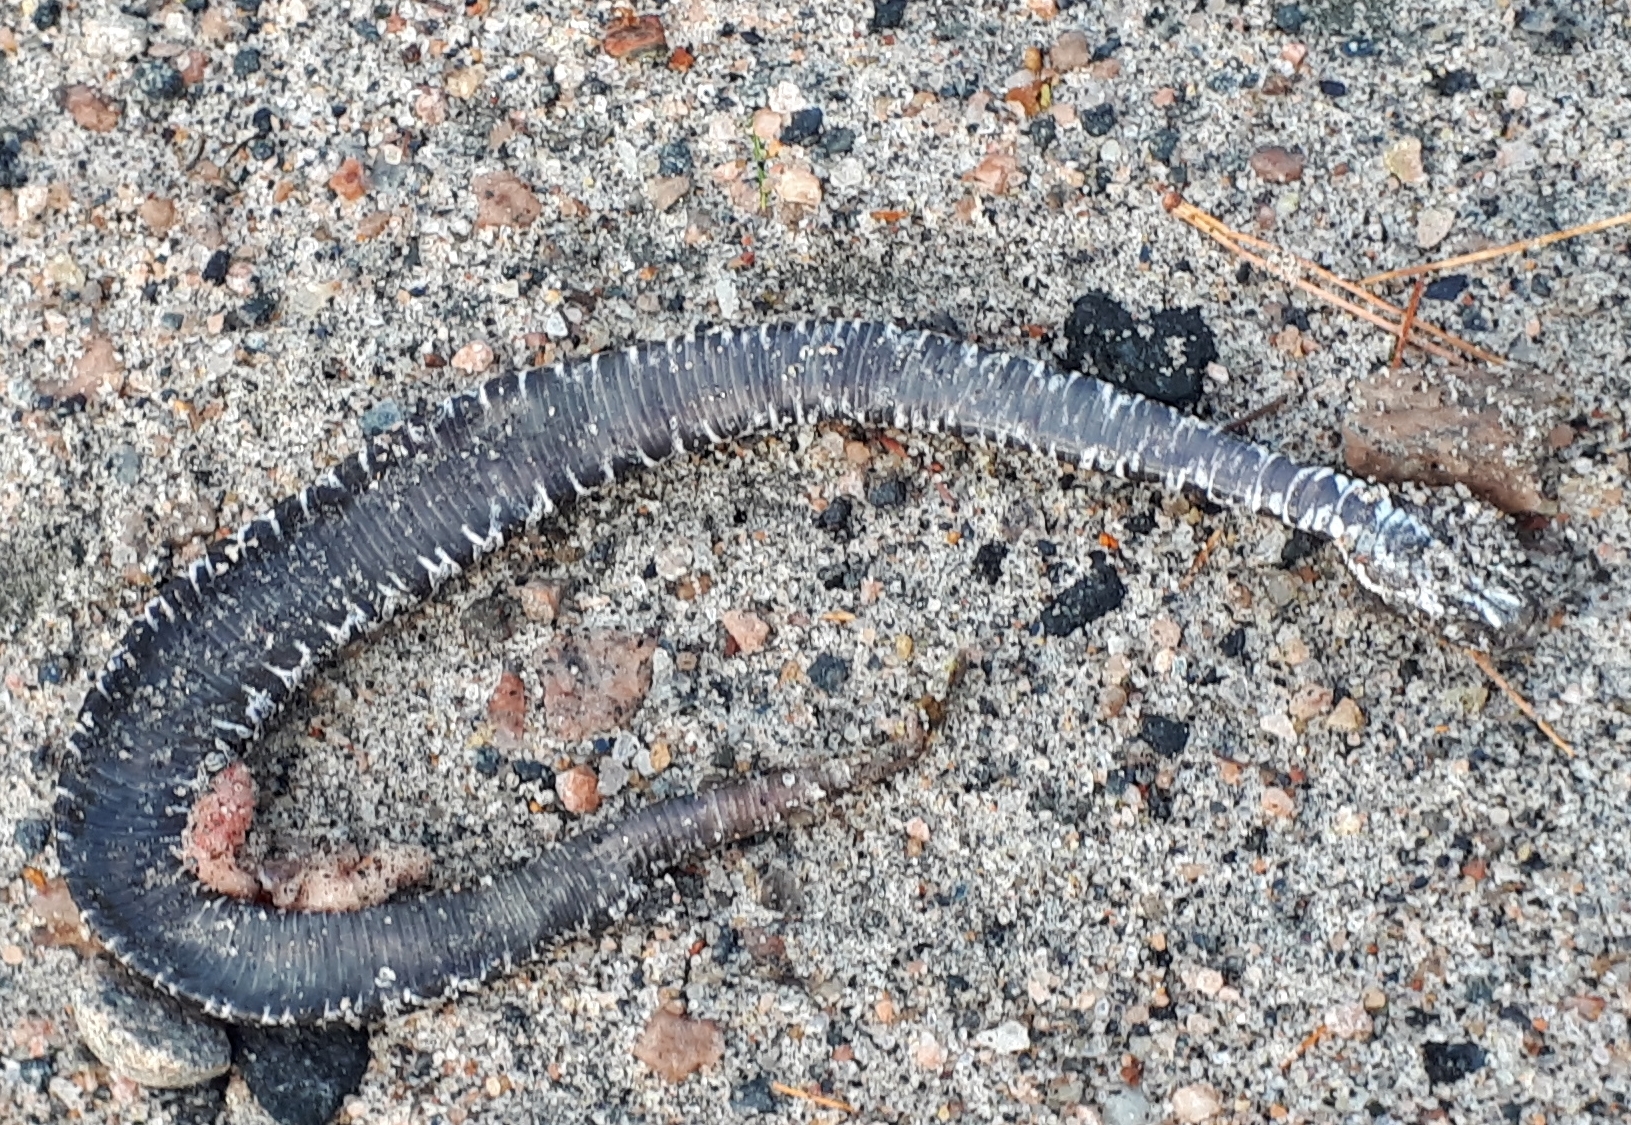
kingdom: Animalia
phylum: Chordata
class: Squamata
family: Viperidae
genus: Sistrurus
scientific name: Sistrurus catenatus
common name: Massasauga
